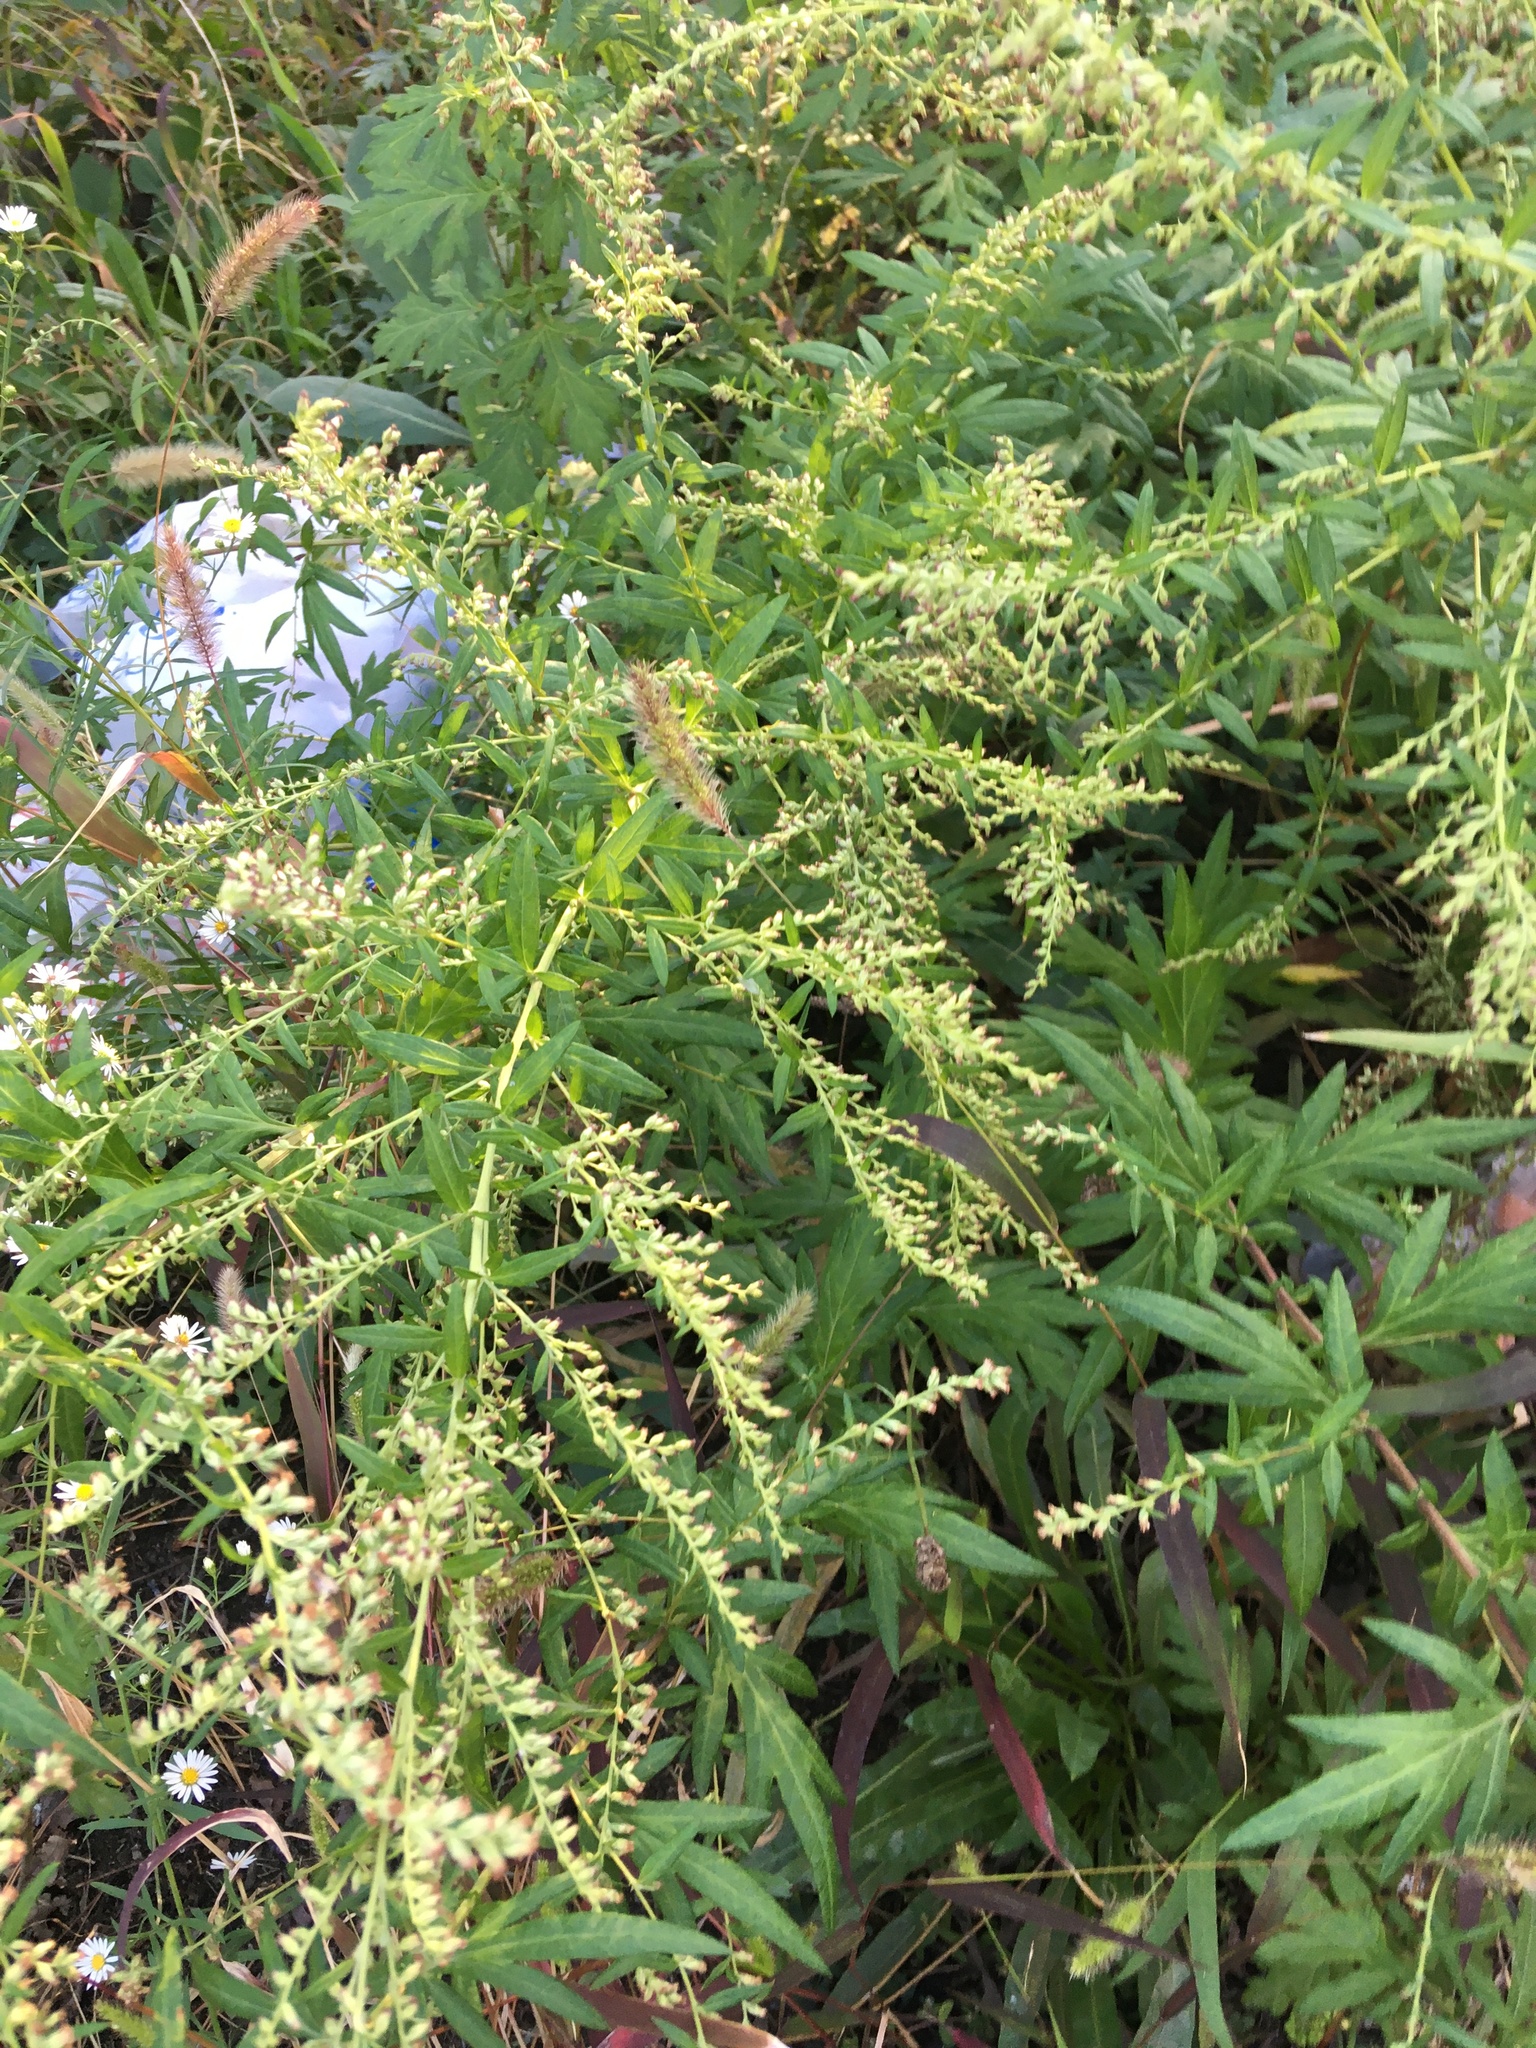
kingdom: Plantae
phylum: Tracheophyta
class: Magnoliopsida
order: Asterales
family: Asteraceae
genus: Artemisia
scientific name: Artemisia vulgaris
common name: Mugwort
